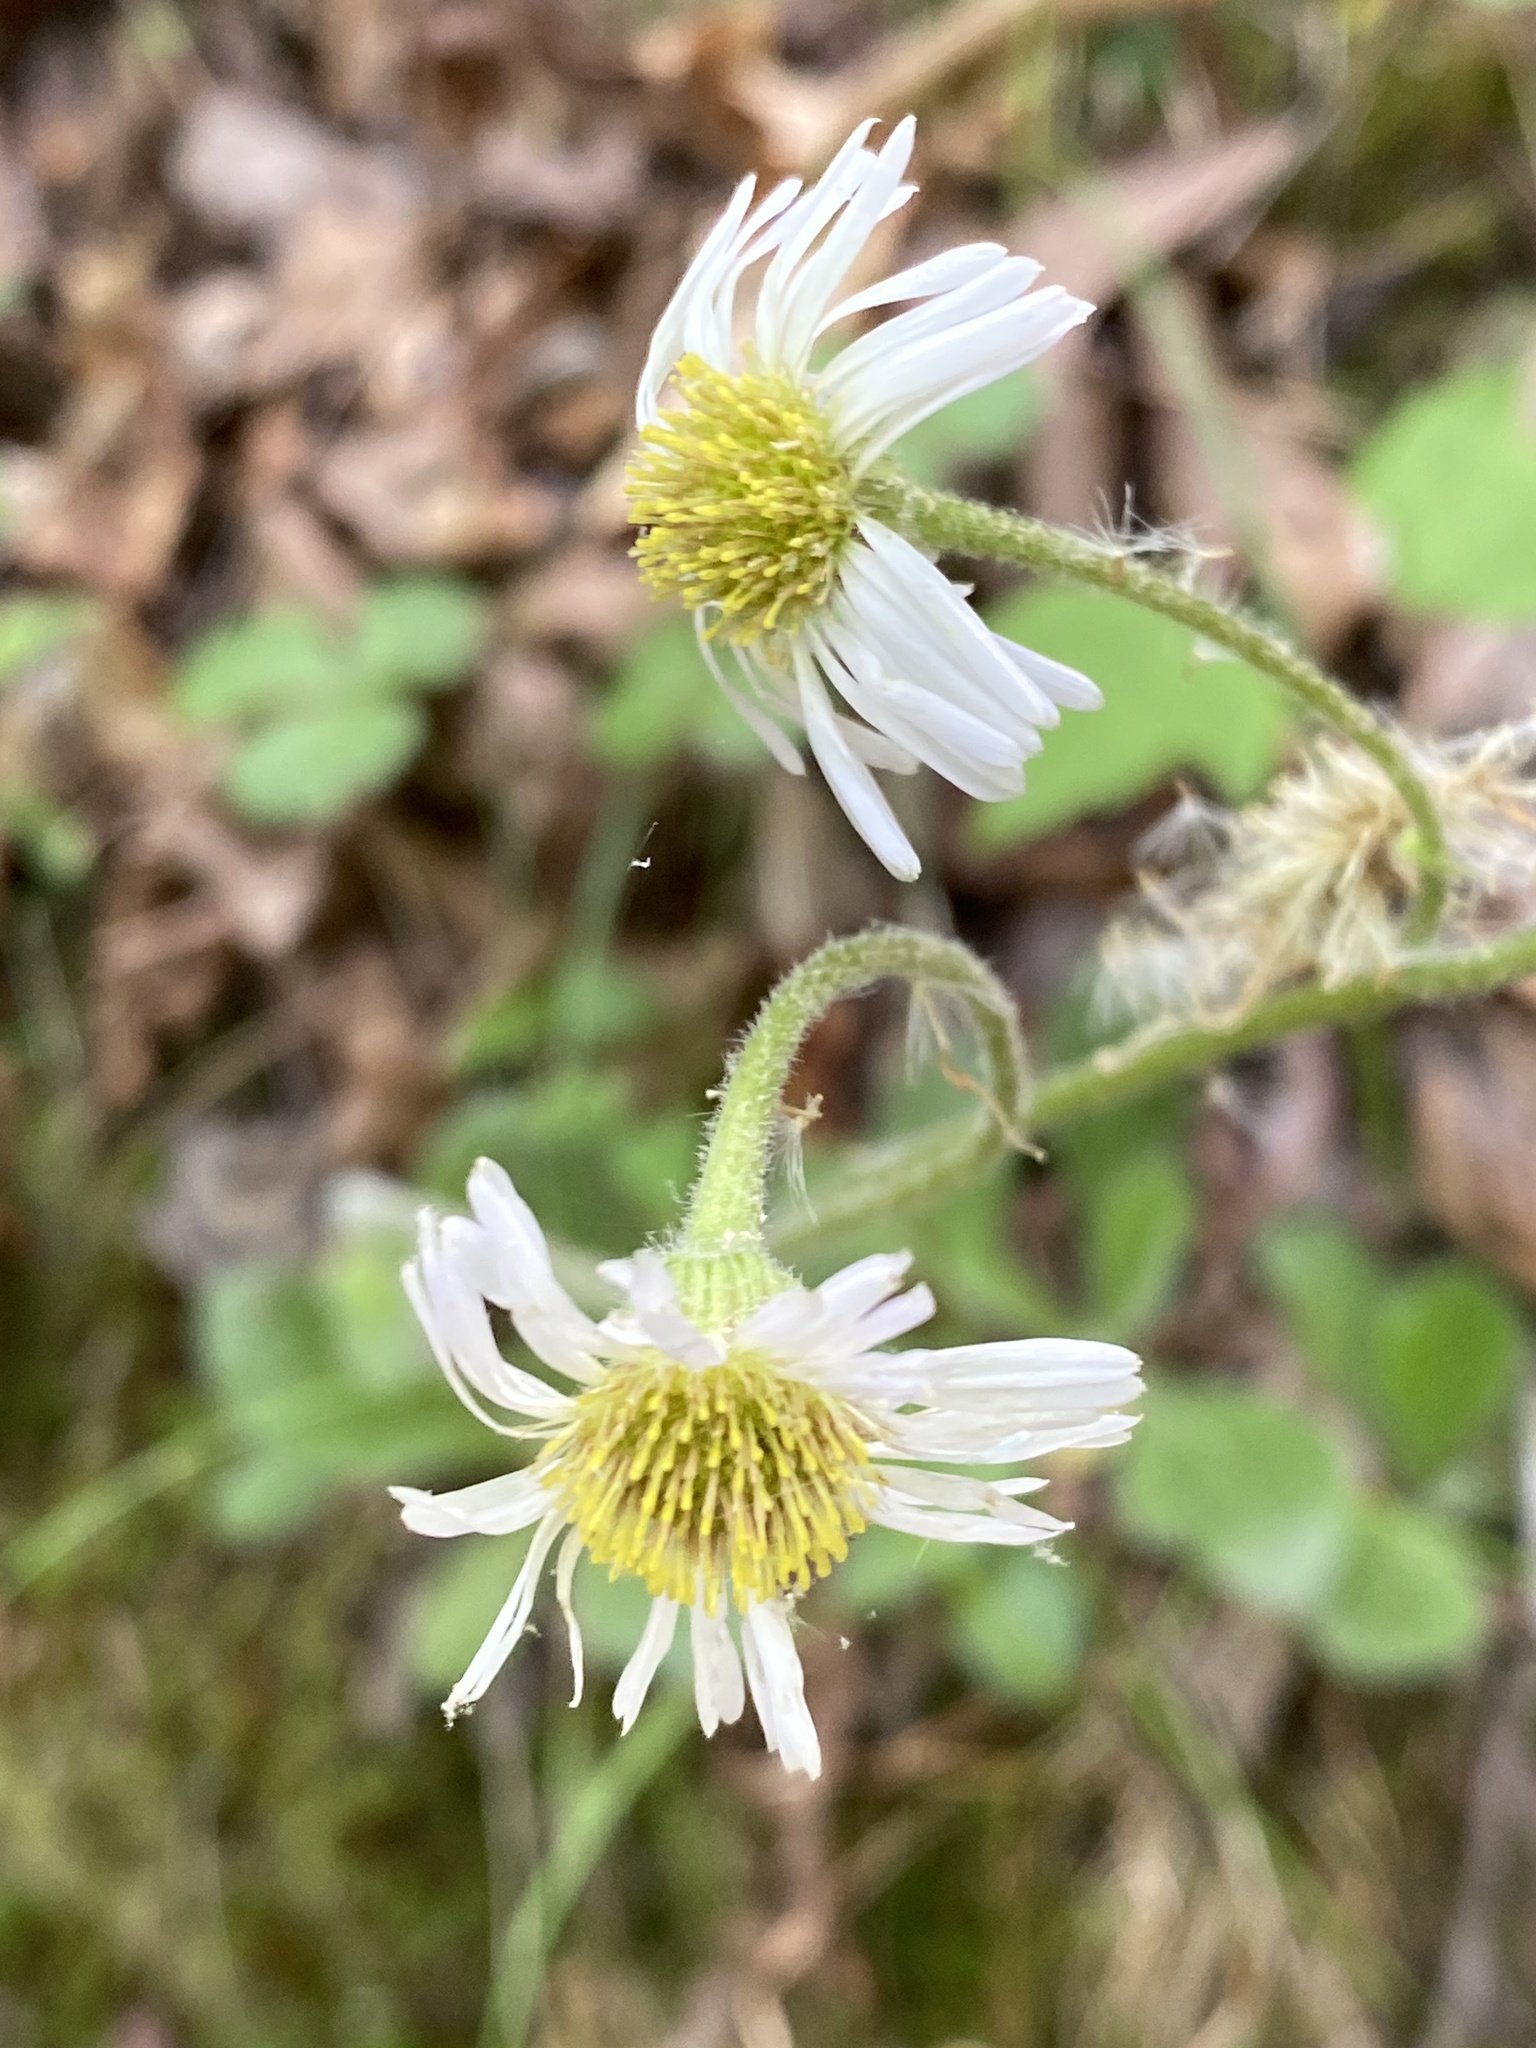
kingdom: Plantae
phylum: Tracheophyta
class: Magnoliopsida
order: Asterales
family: Asteraceae
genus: Erigeron
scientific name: Erigeron pulchellus
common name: Hairy fleabane
